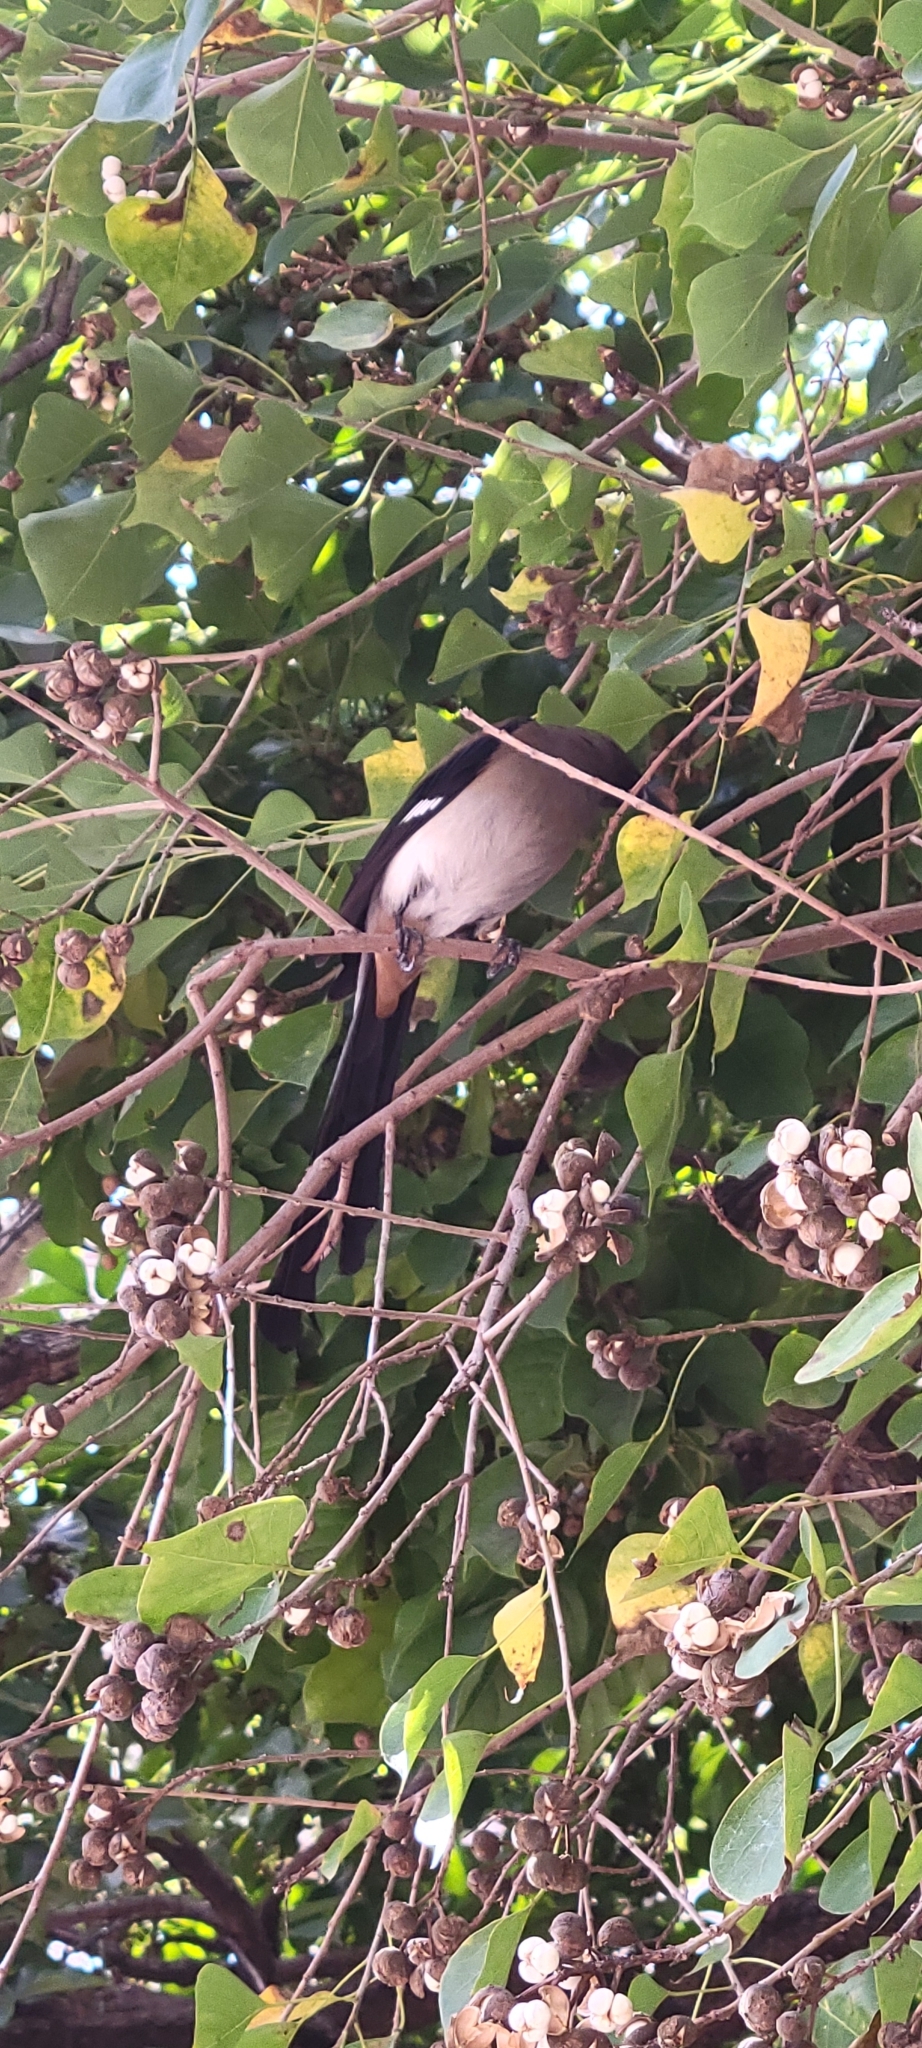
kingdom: Animalia
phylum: Chordata
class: Aves
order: Passeriformes
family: Corvidae
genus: Dendrocitta
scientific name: Dendrocitta formosae
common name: Grey treepie
